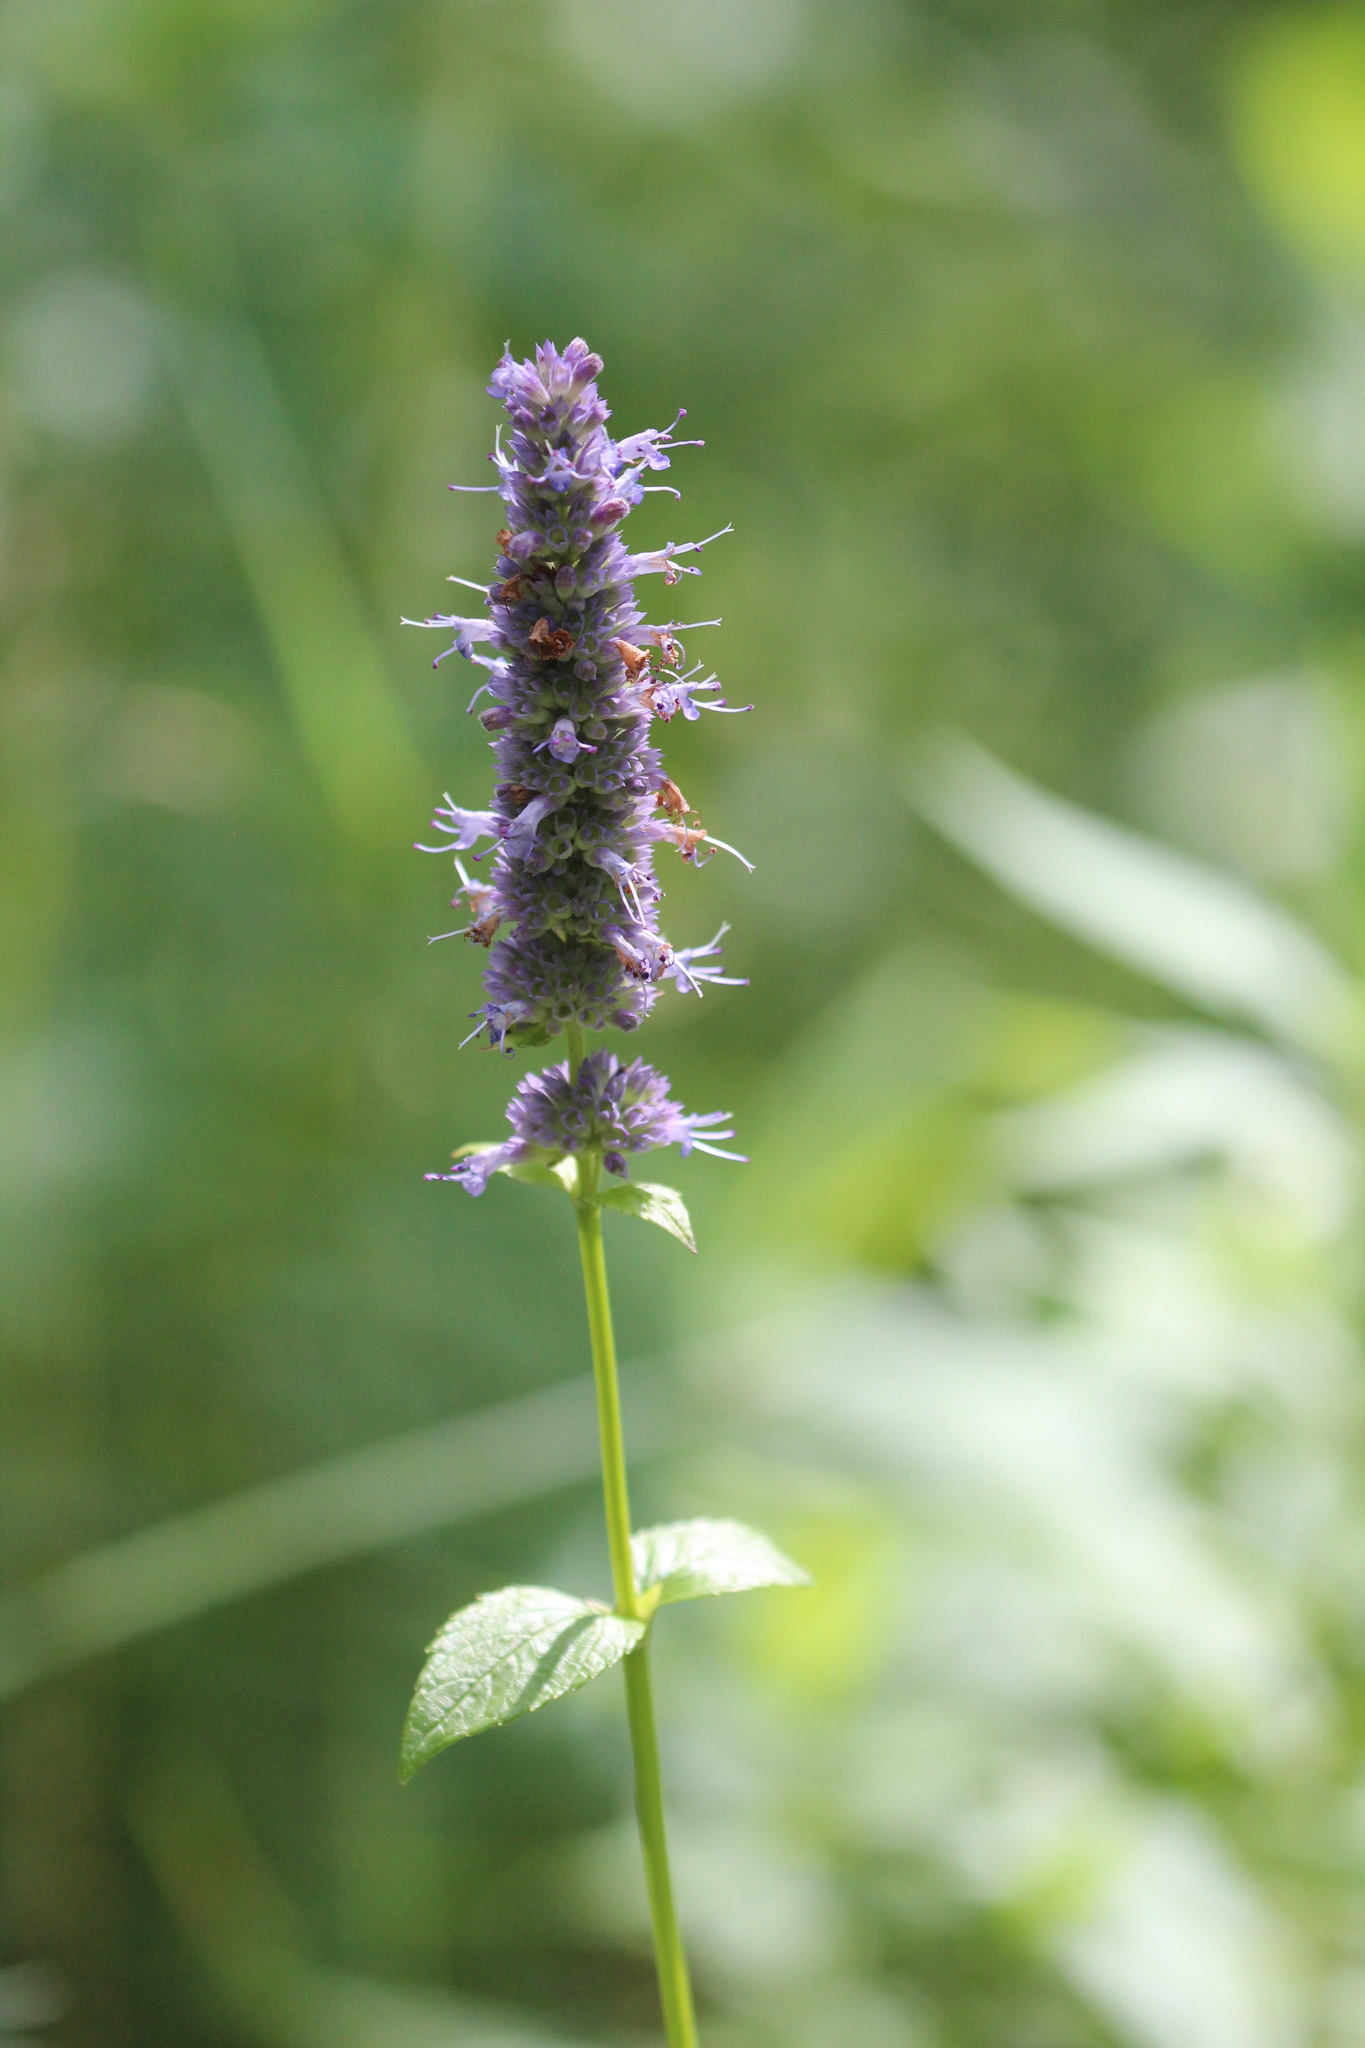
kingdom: Plantae
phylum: Tracheophyta
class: Magnoliopsida
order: Lamiales
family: Lamiaceae
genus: Agastache
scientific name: Agastache foeniculum
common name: Anise hyssop
